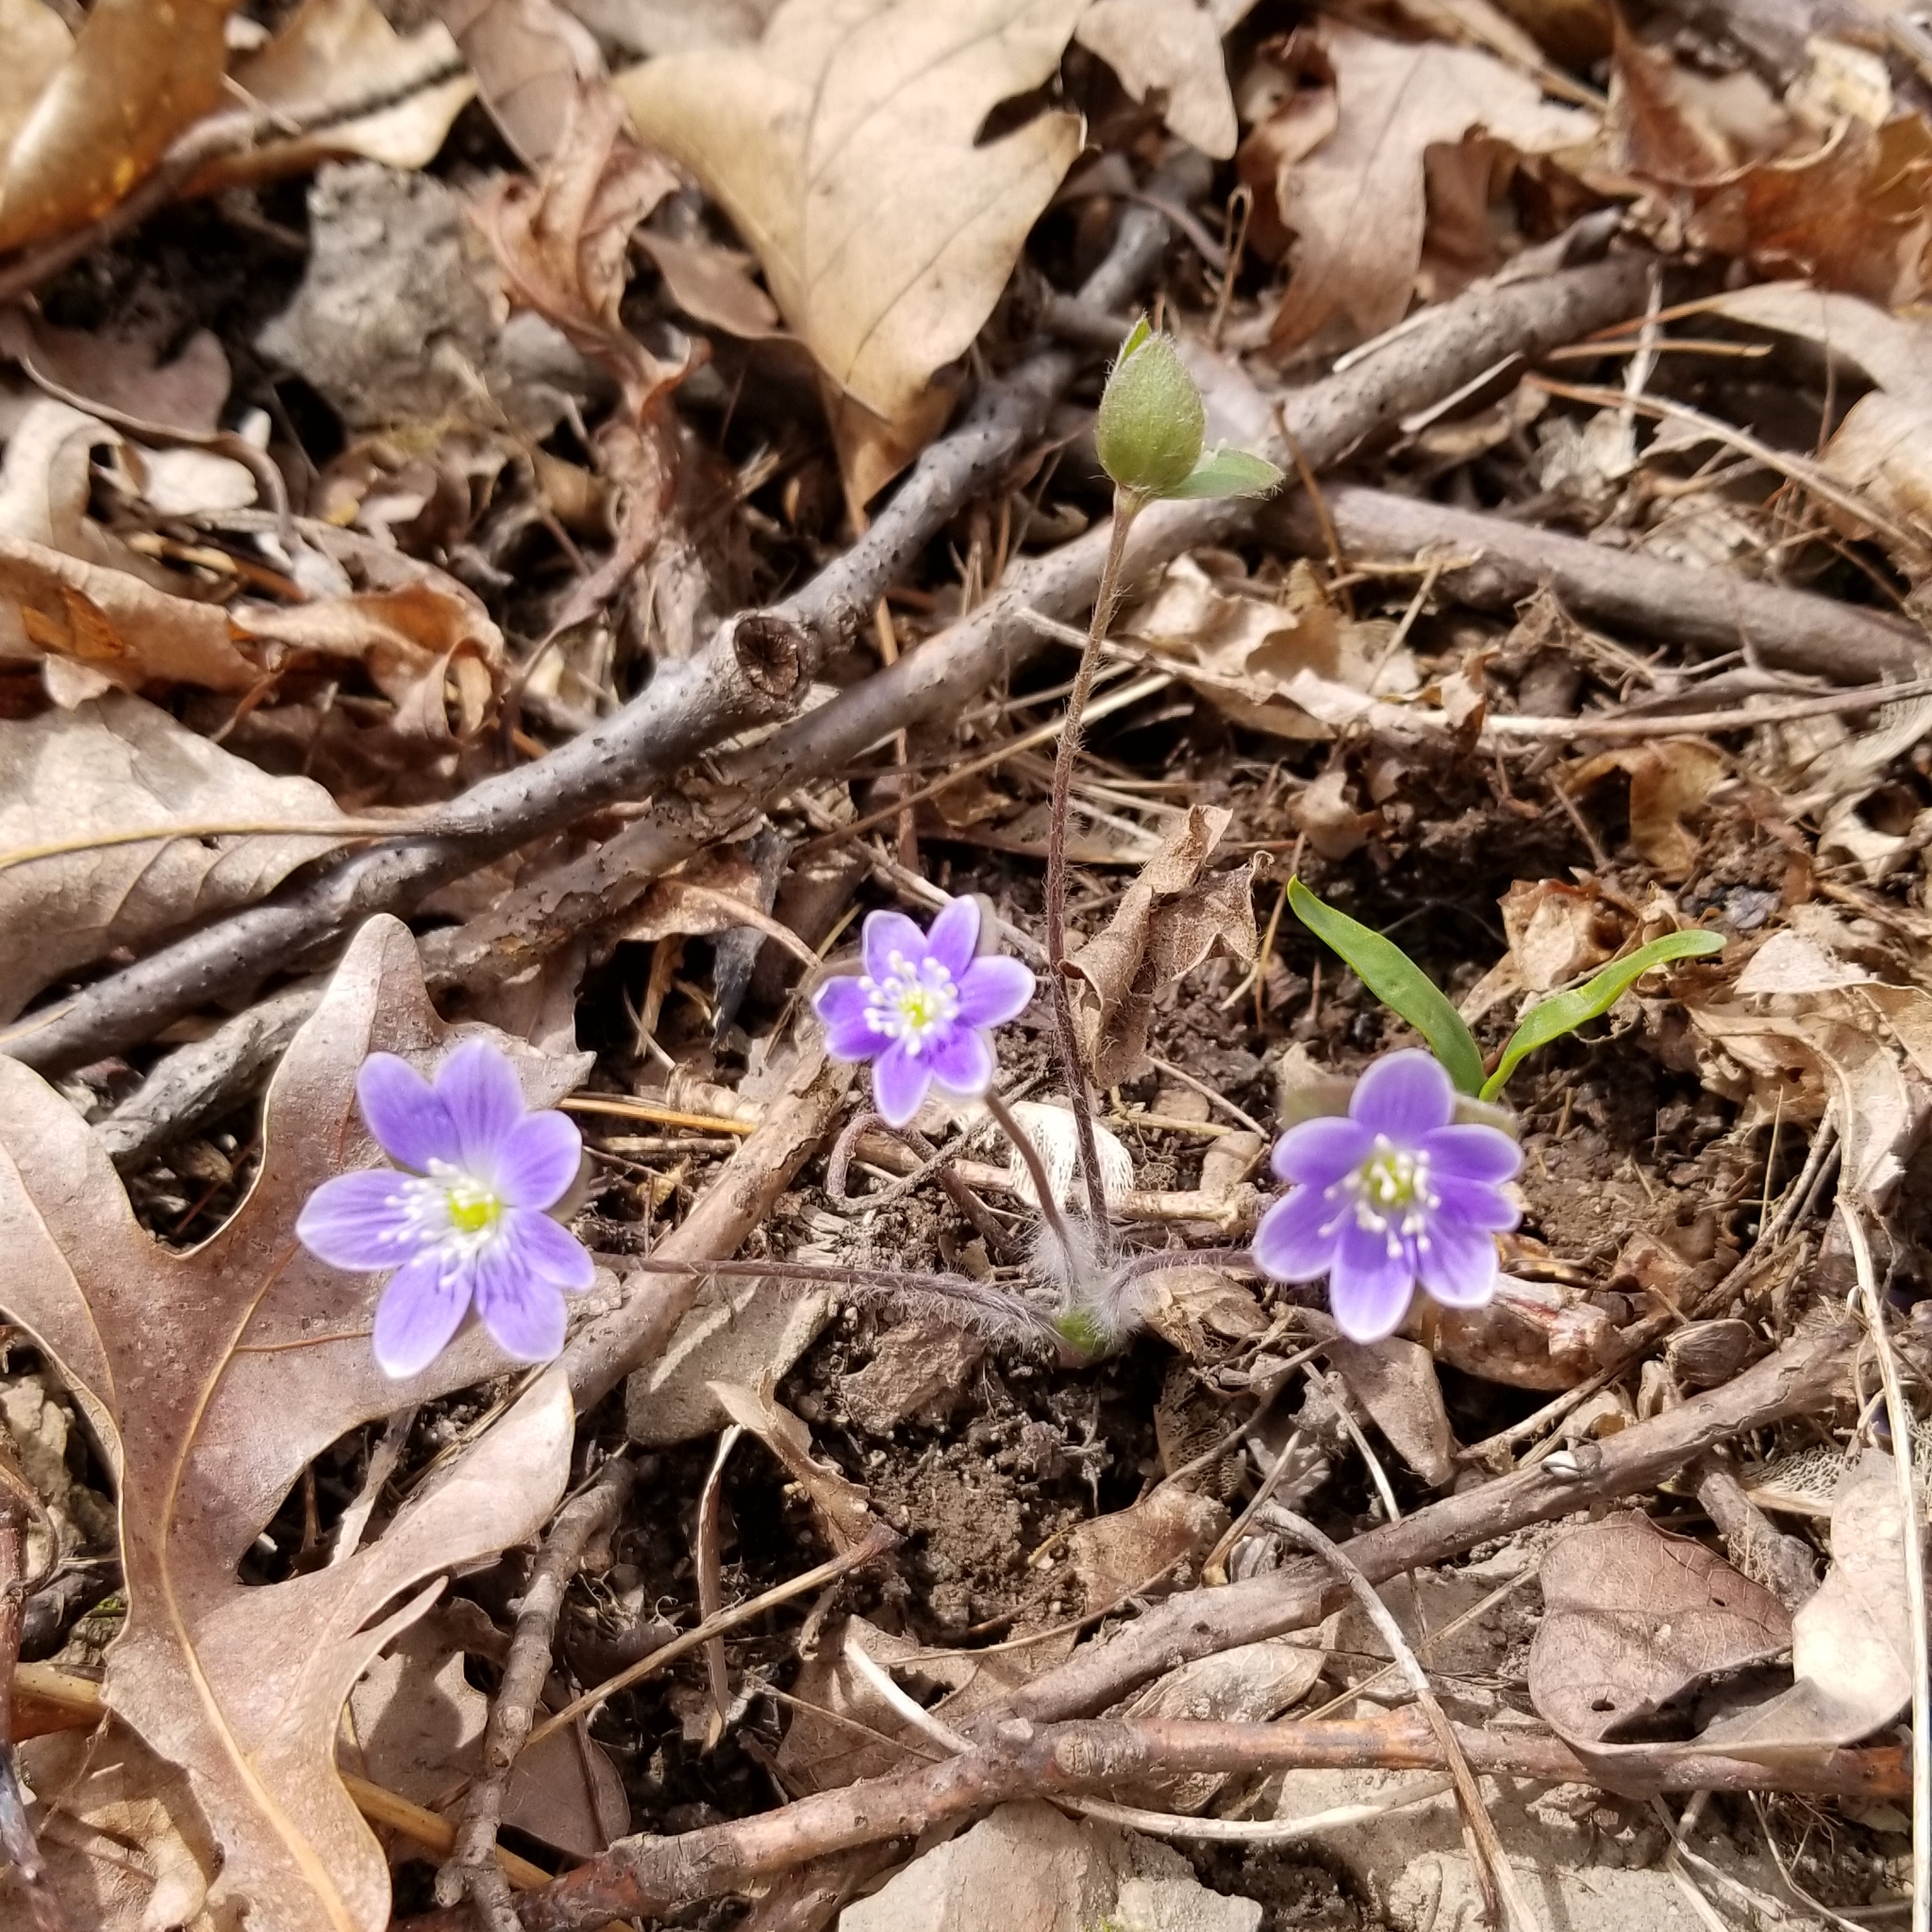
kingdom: Plantae
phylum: Tracheophyta
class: Magnoliopsida
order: Ranunculales
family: Ranunculaceae
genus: Hepatica
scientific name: Hepatica americana
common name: American hepatica
